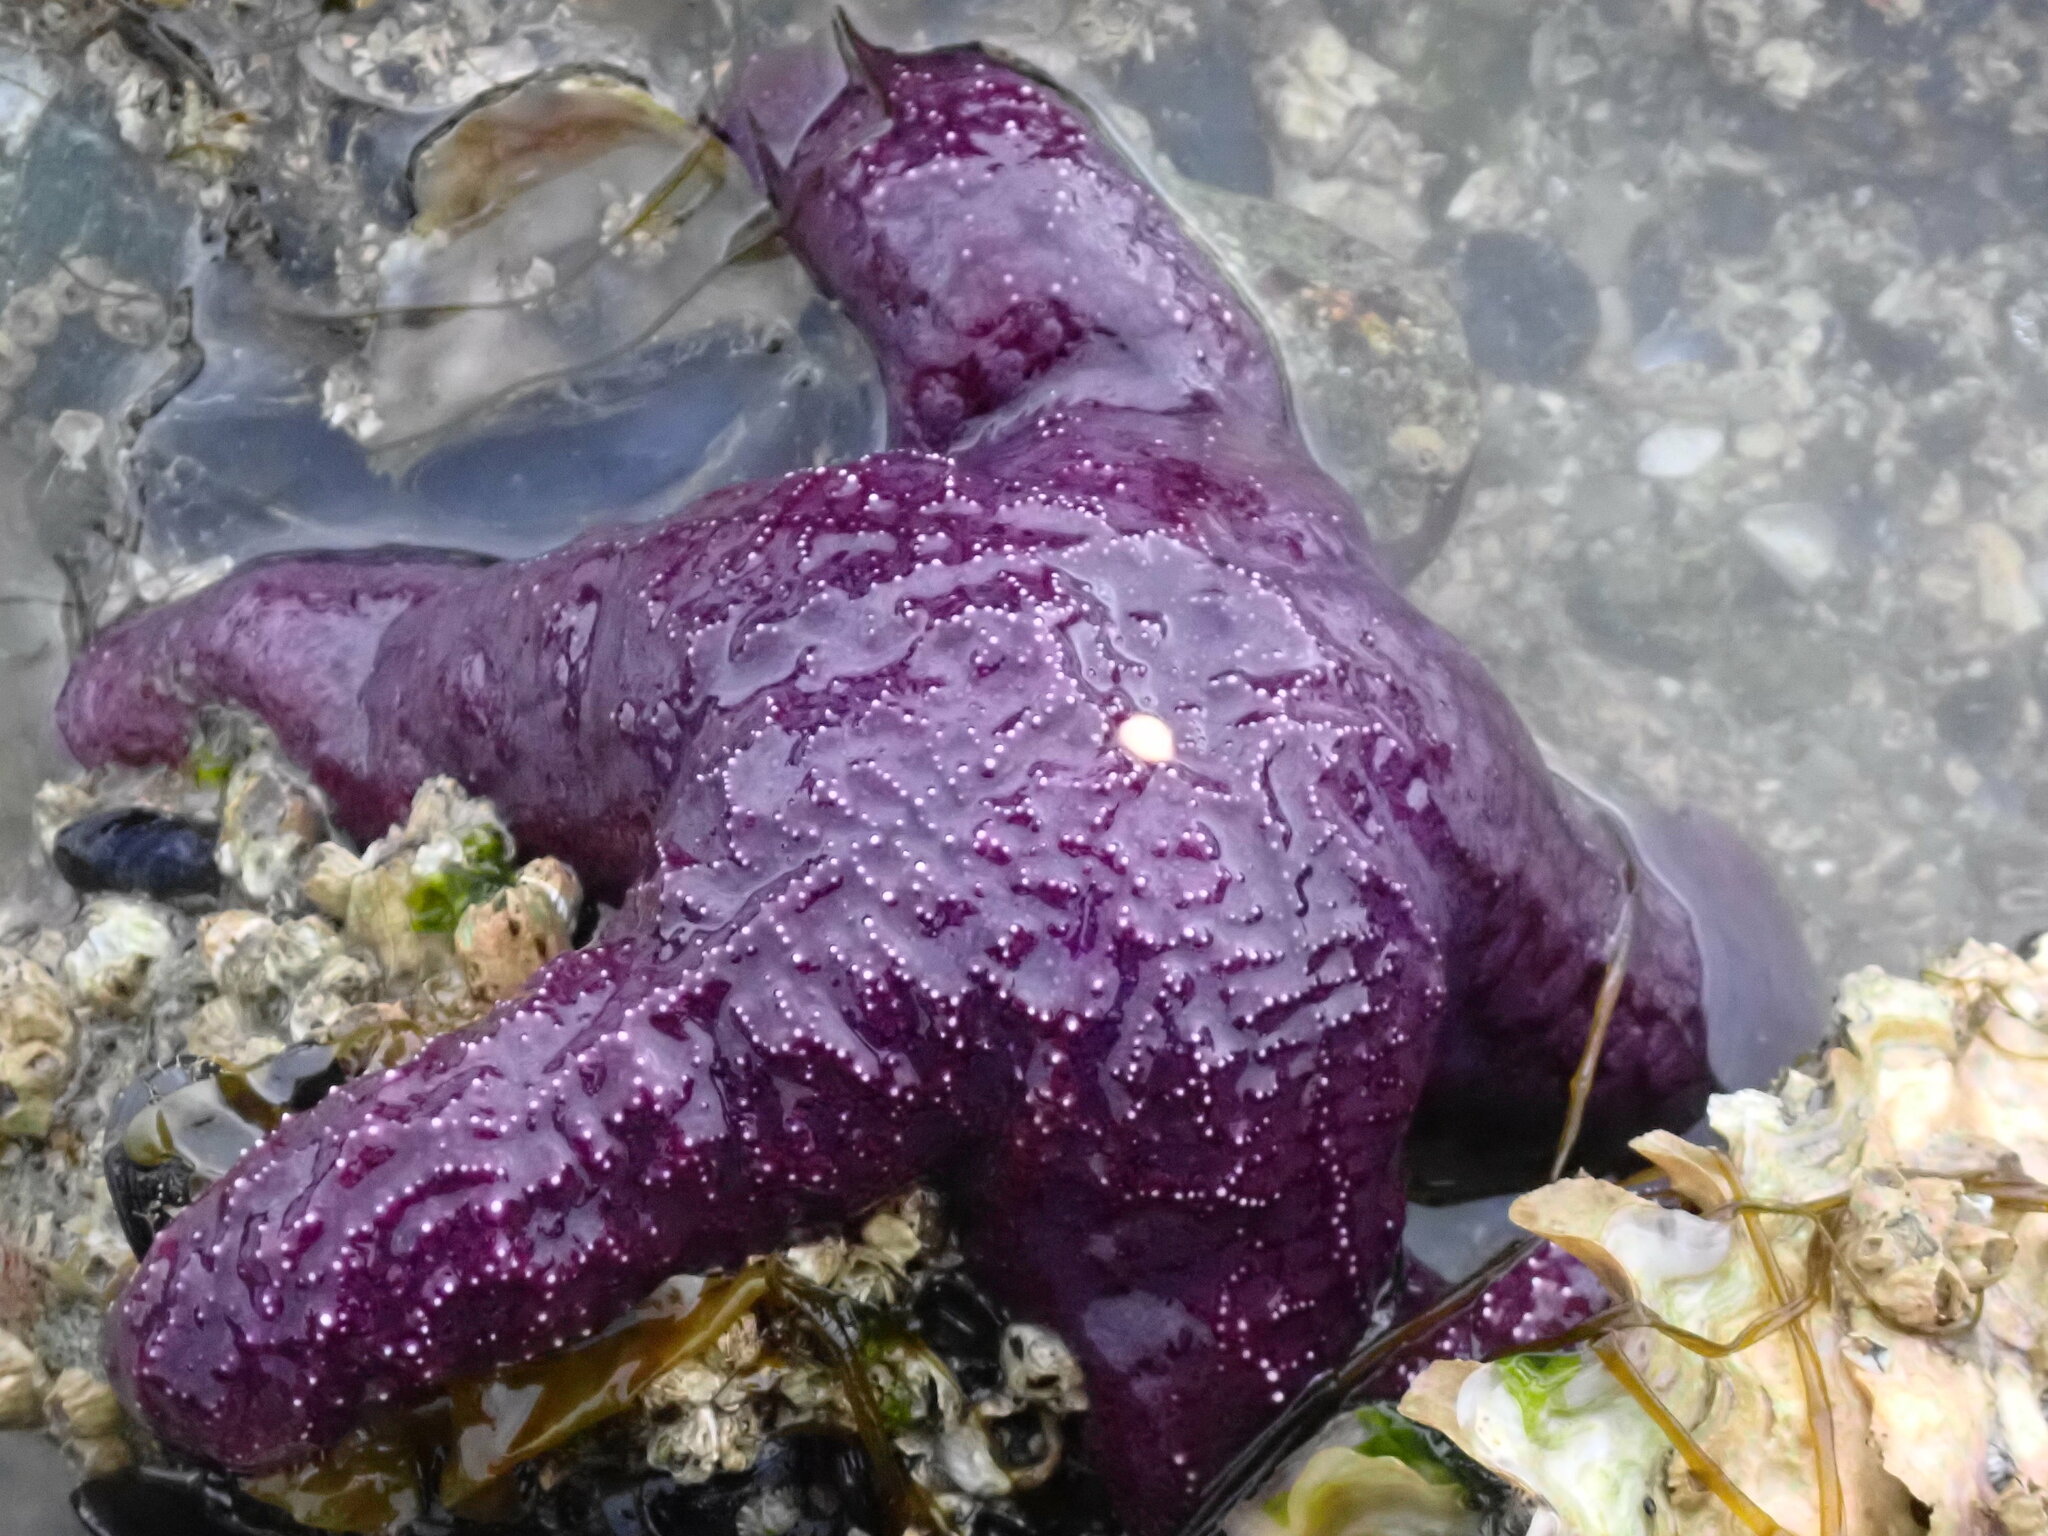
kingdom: Animalia
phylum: Echinodermata
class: Asteroidea
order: Forcipulatida
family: Asteriidae
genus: Pisaster
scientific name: Pisaster ochraceus
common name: Ochre stars
